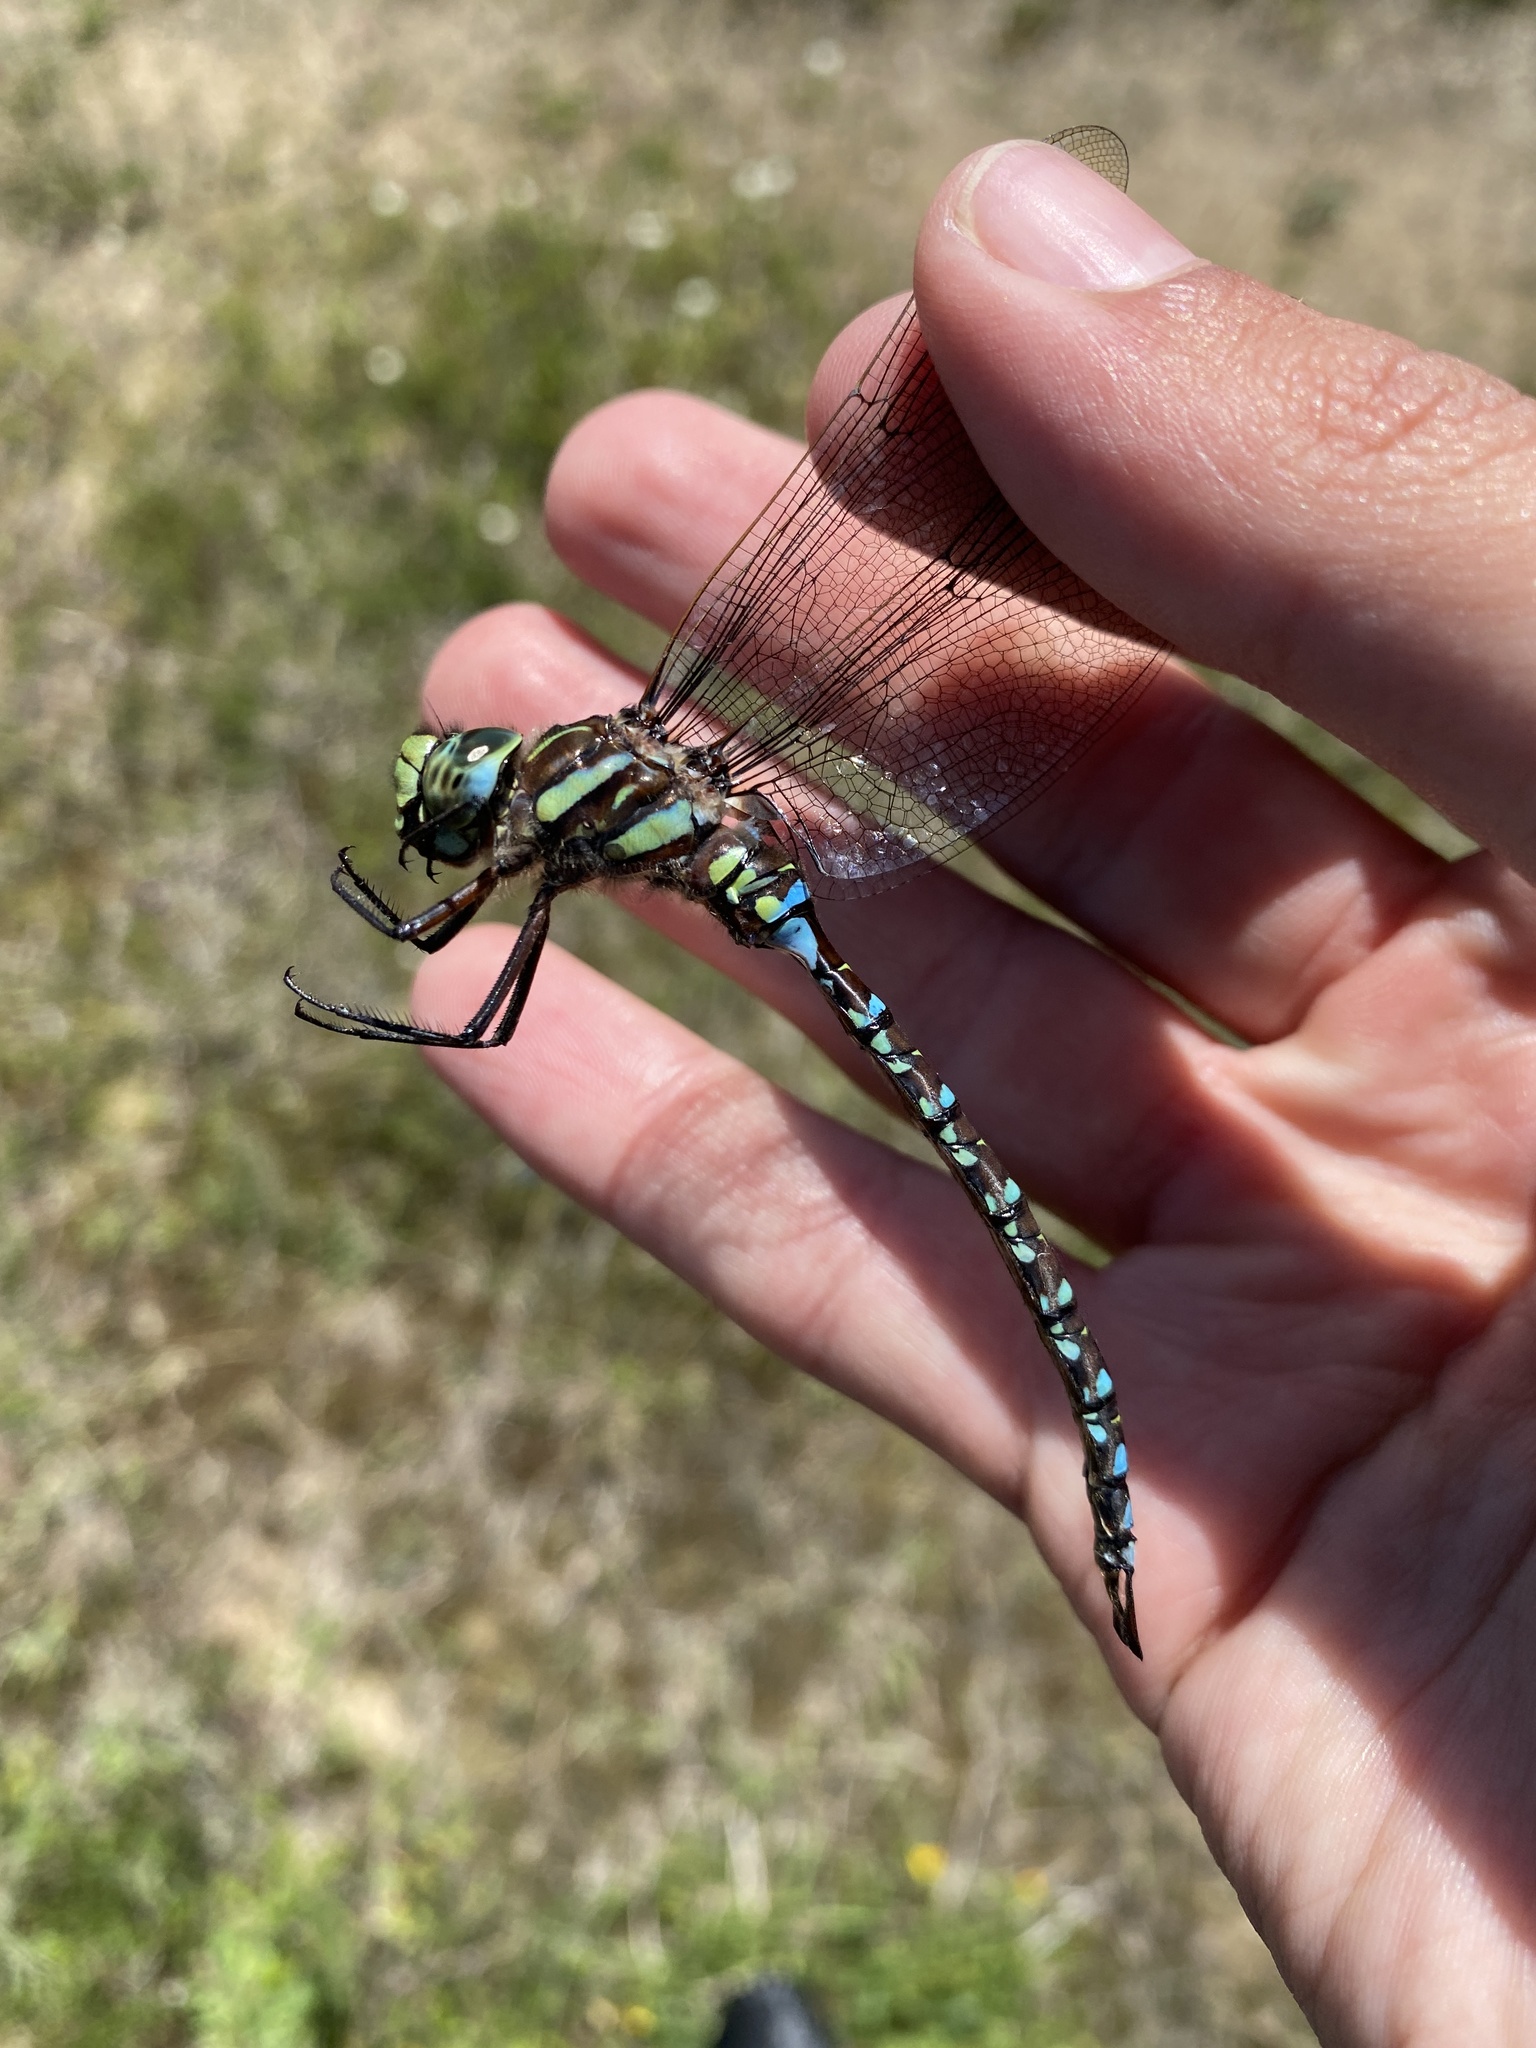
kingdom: Animalia
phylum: Arthropoda
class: Insecta
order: Odonata
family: Aeshnidae
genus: Aeshna
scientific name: Aeshna juncea
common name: Moorland hawker
